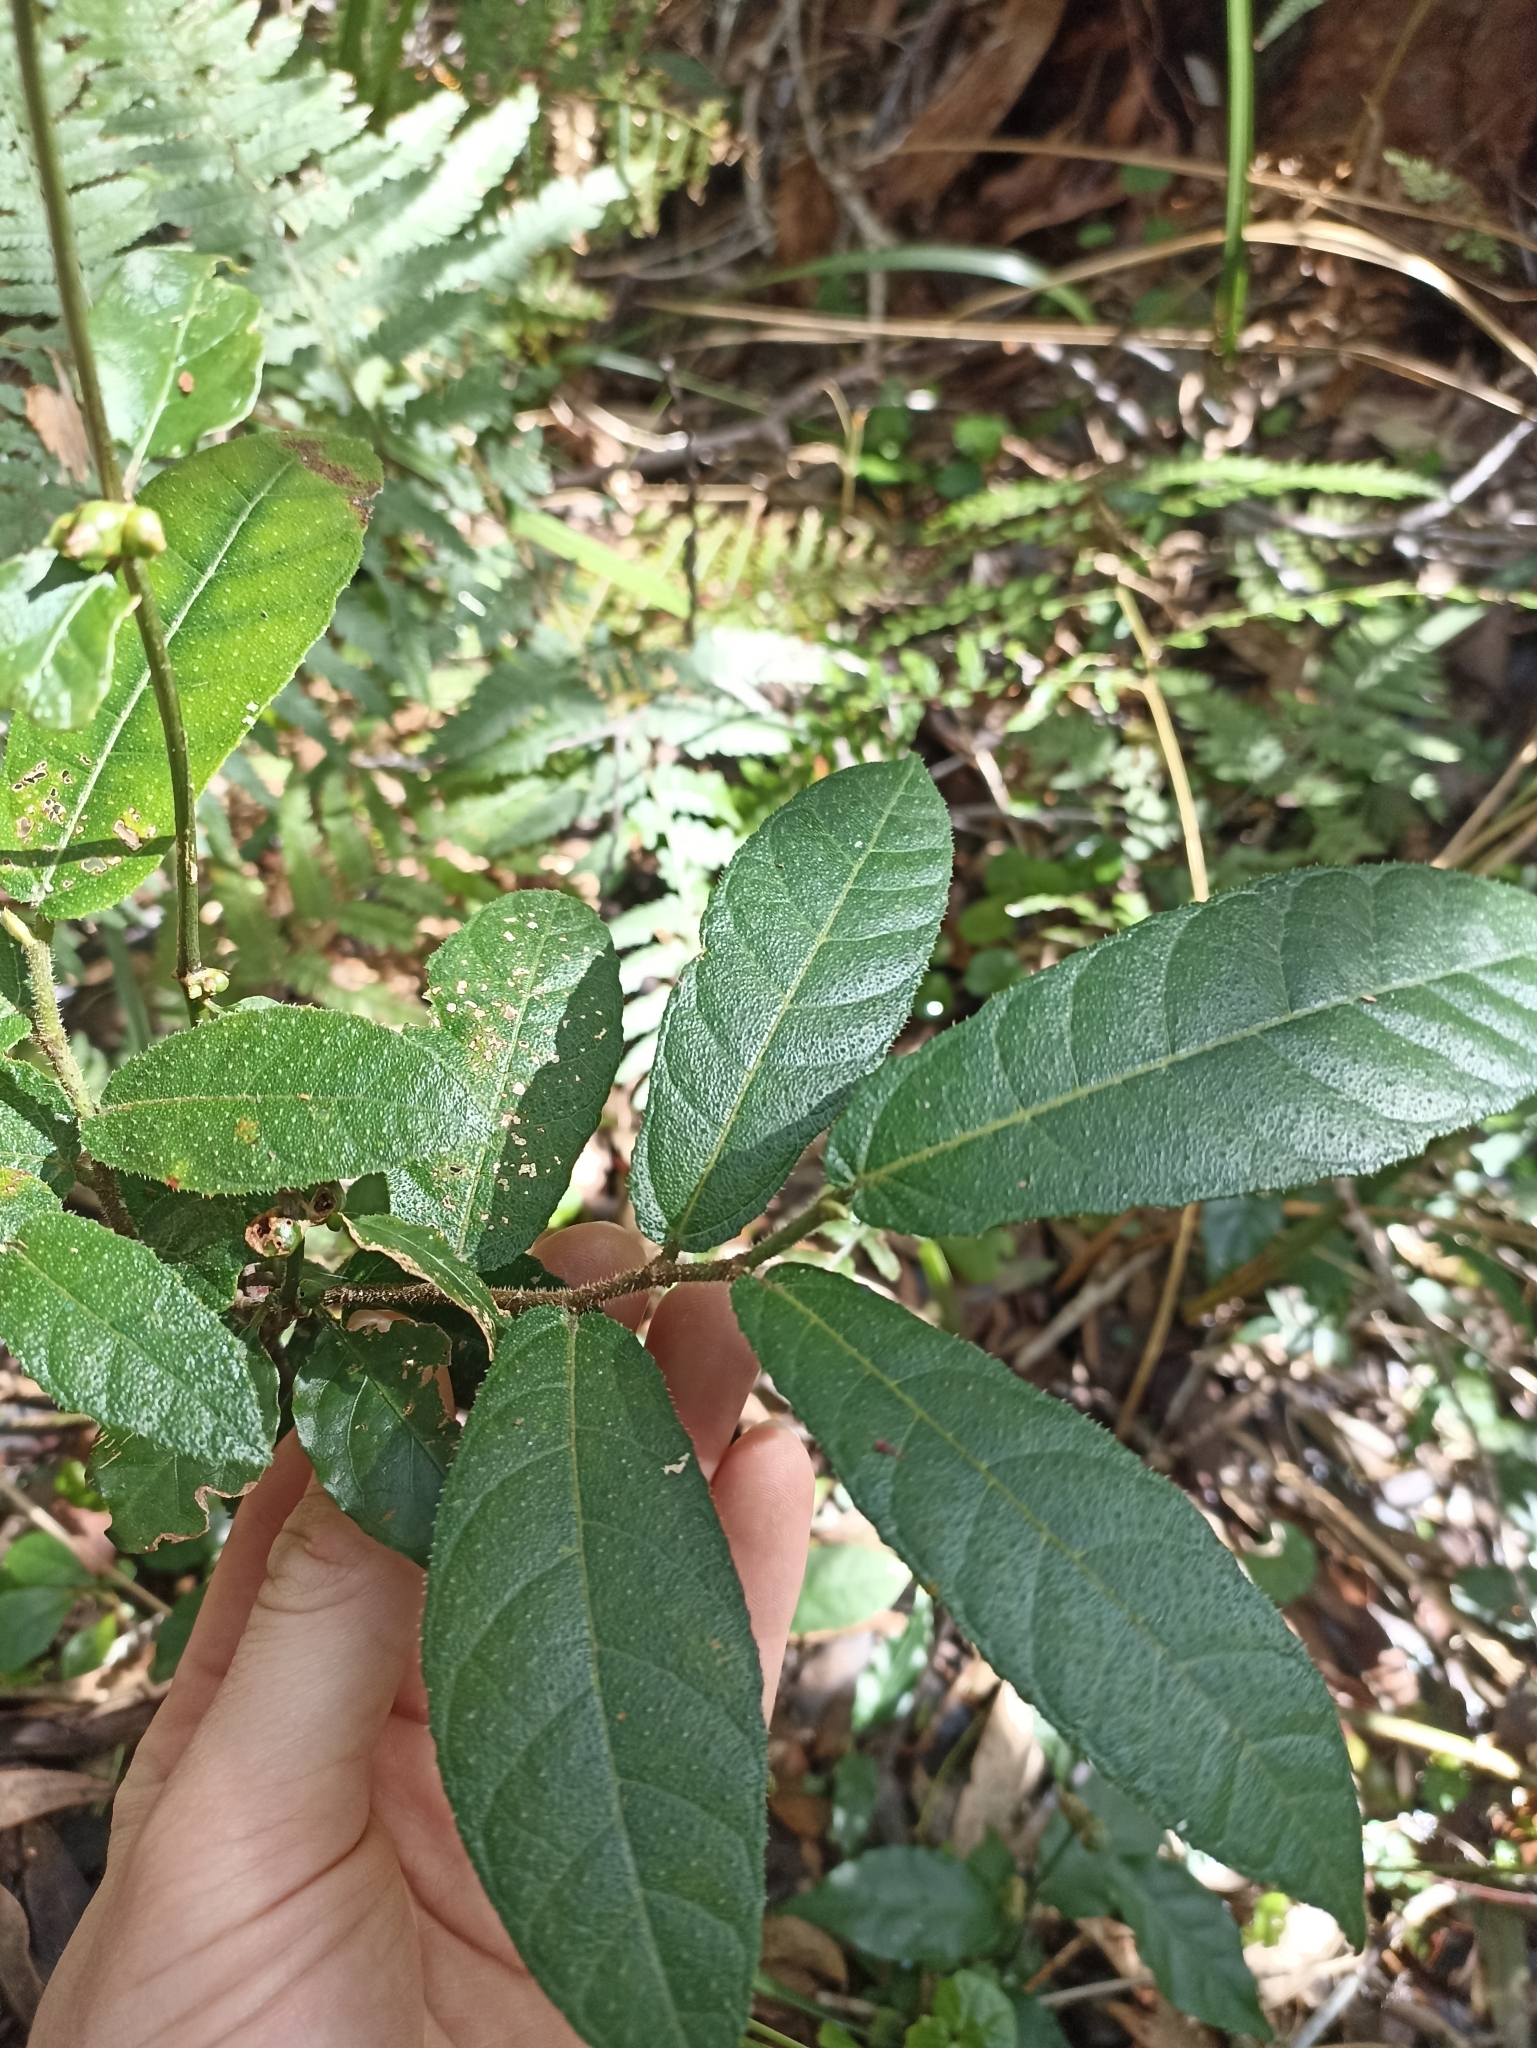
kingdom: Plantae
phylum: Tracheophyta
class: Magnoliopsida
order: Rosales
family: Moraceae
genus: Ficus
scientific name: Ficus coronata
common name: Creek sandpaper fig
